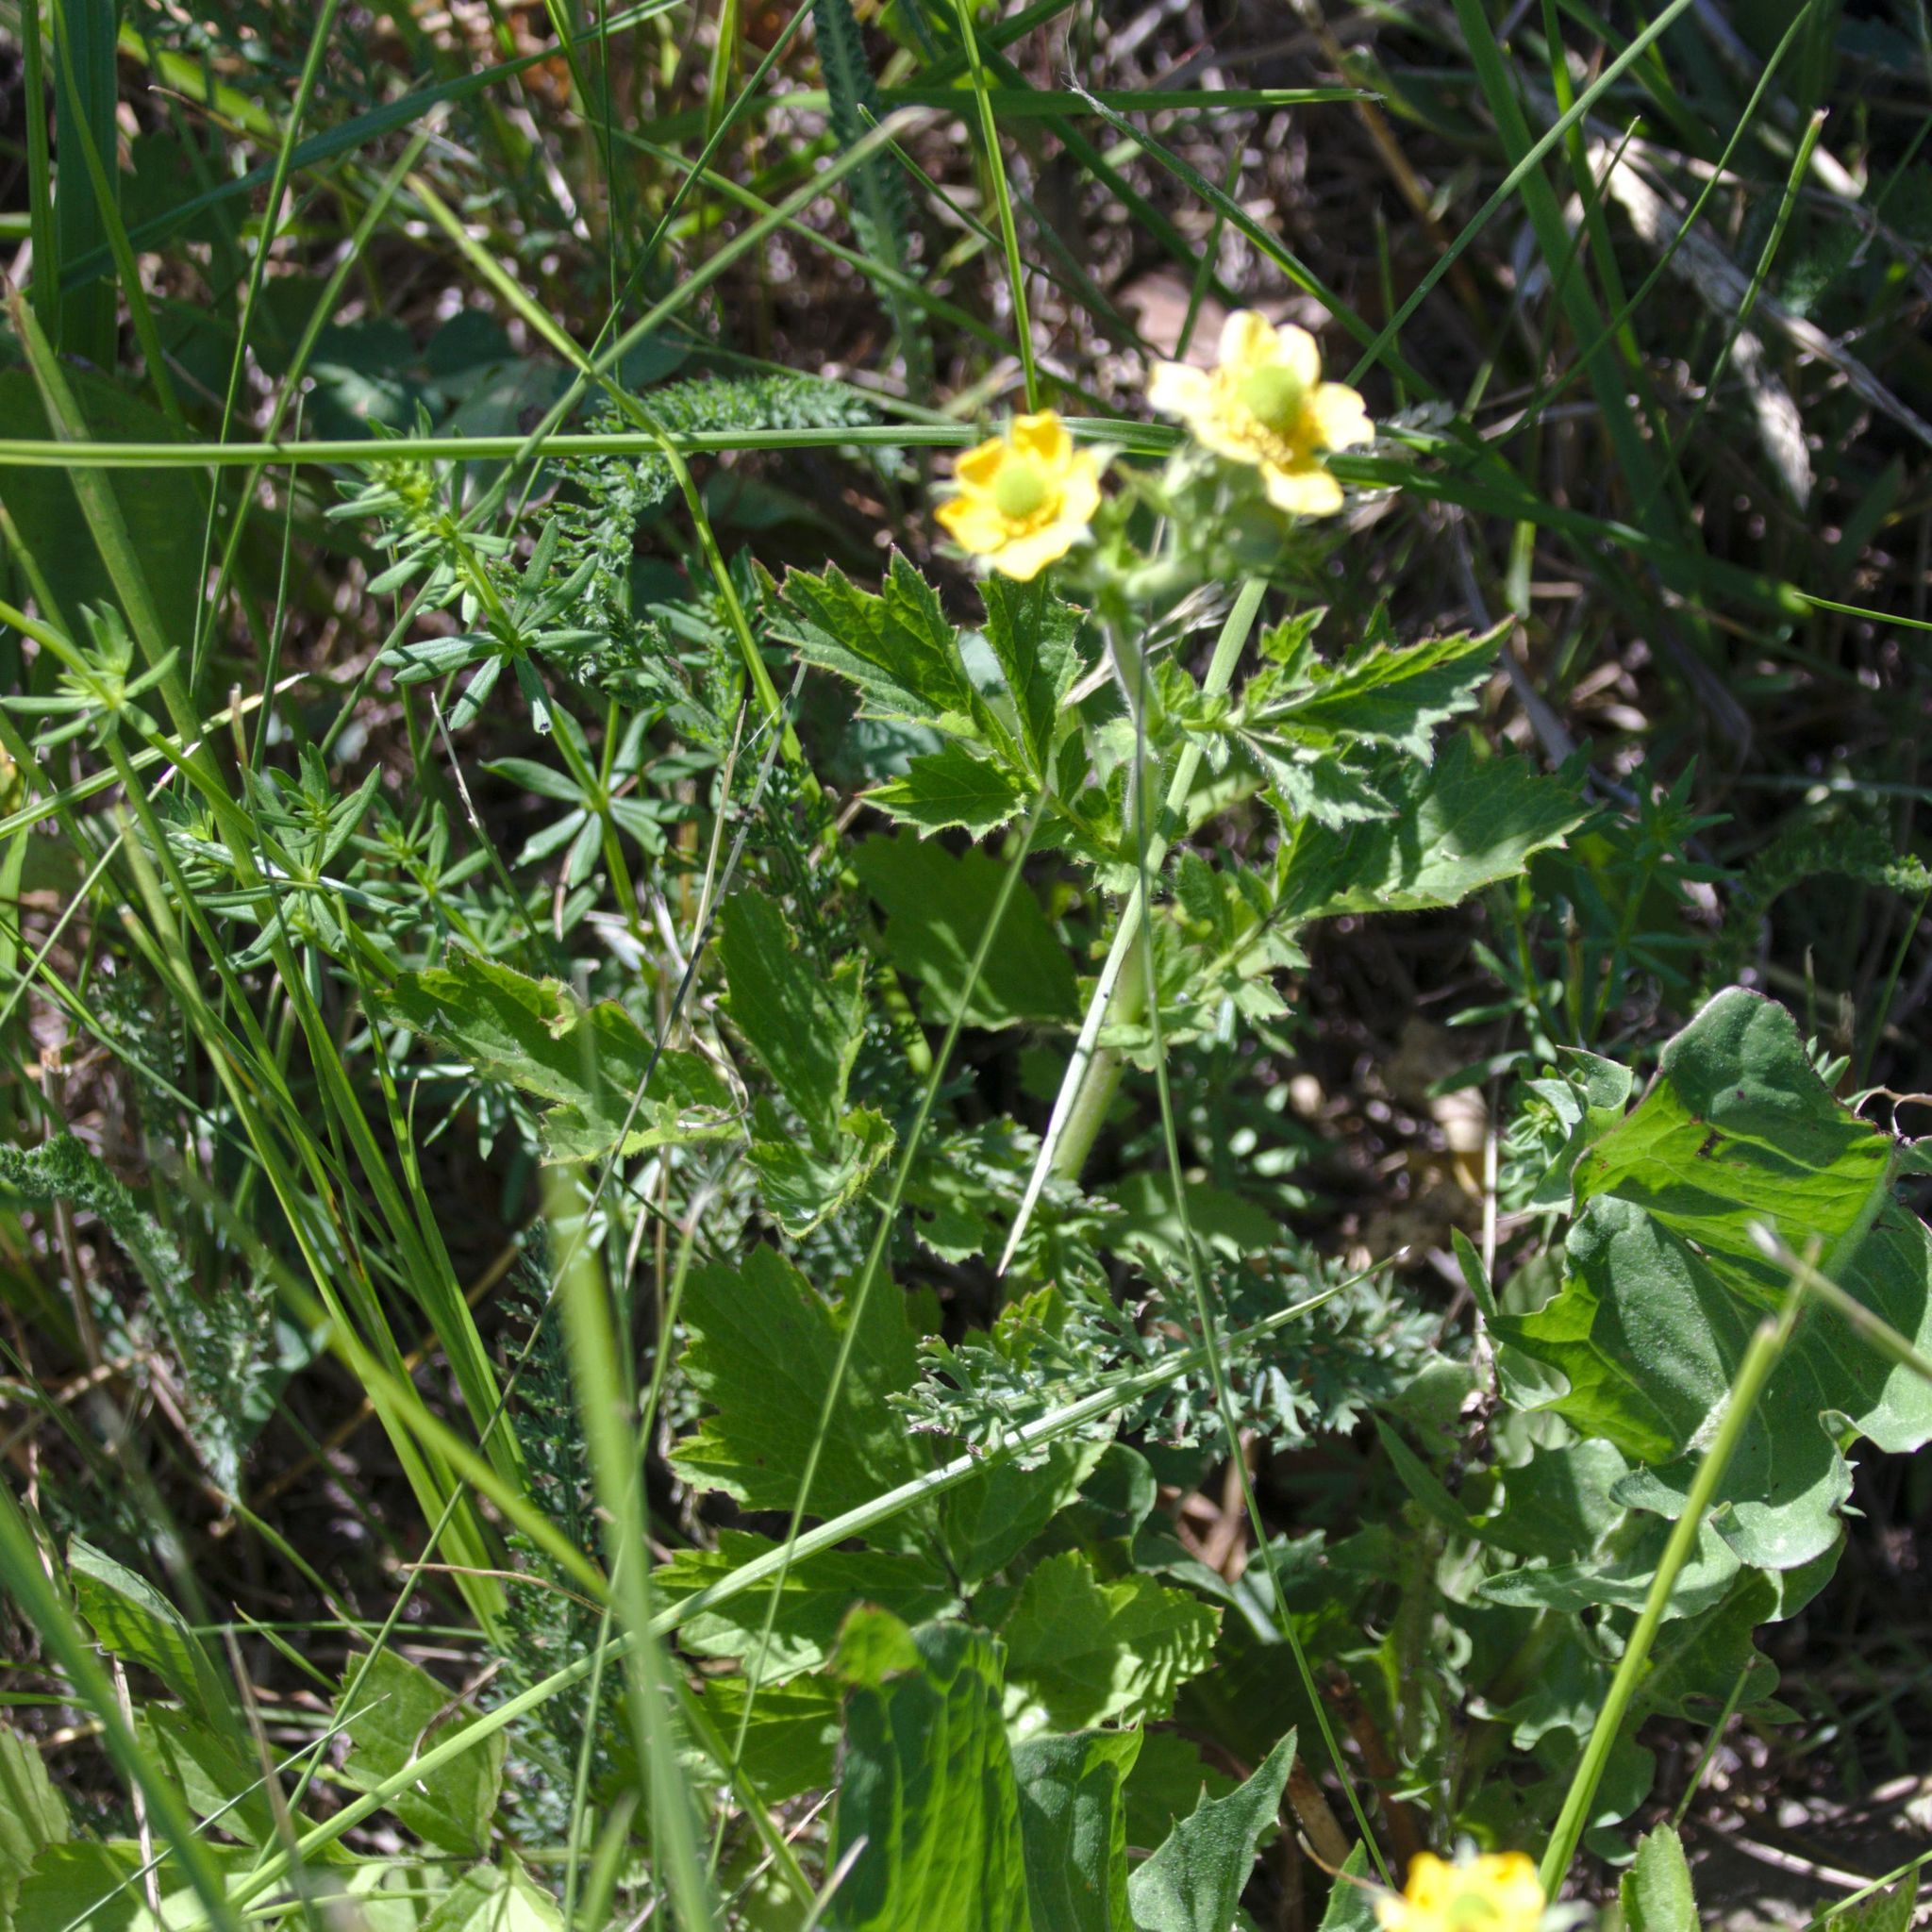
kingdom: Plantae
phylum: Tracheophyta
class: Magnoliopsida
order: Rosales
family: Rosaceae
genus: Geum
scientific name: Geum aleppicum
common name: Yellow avens
